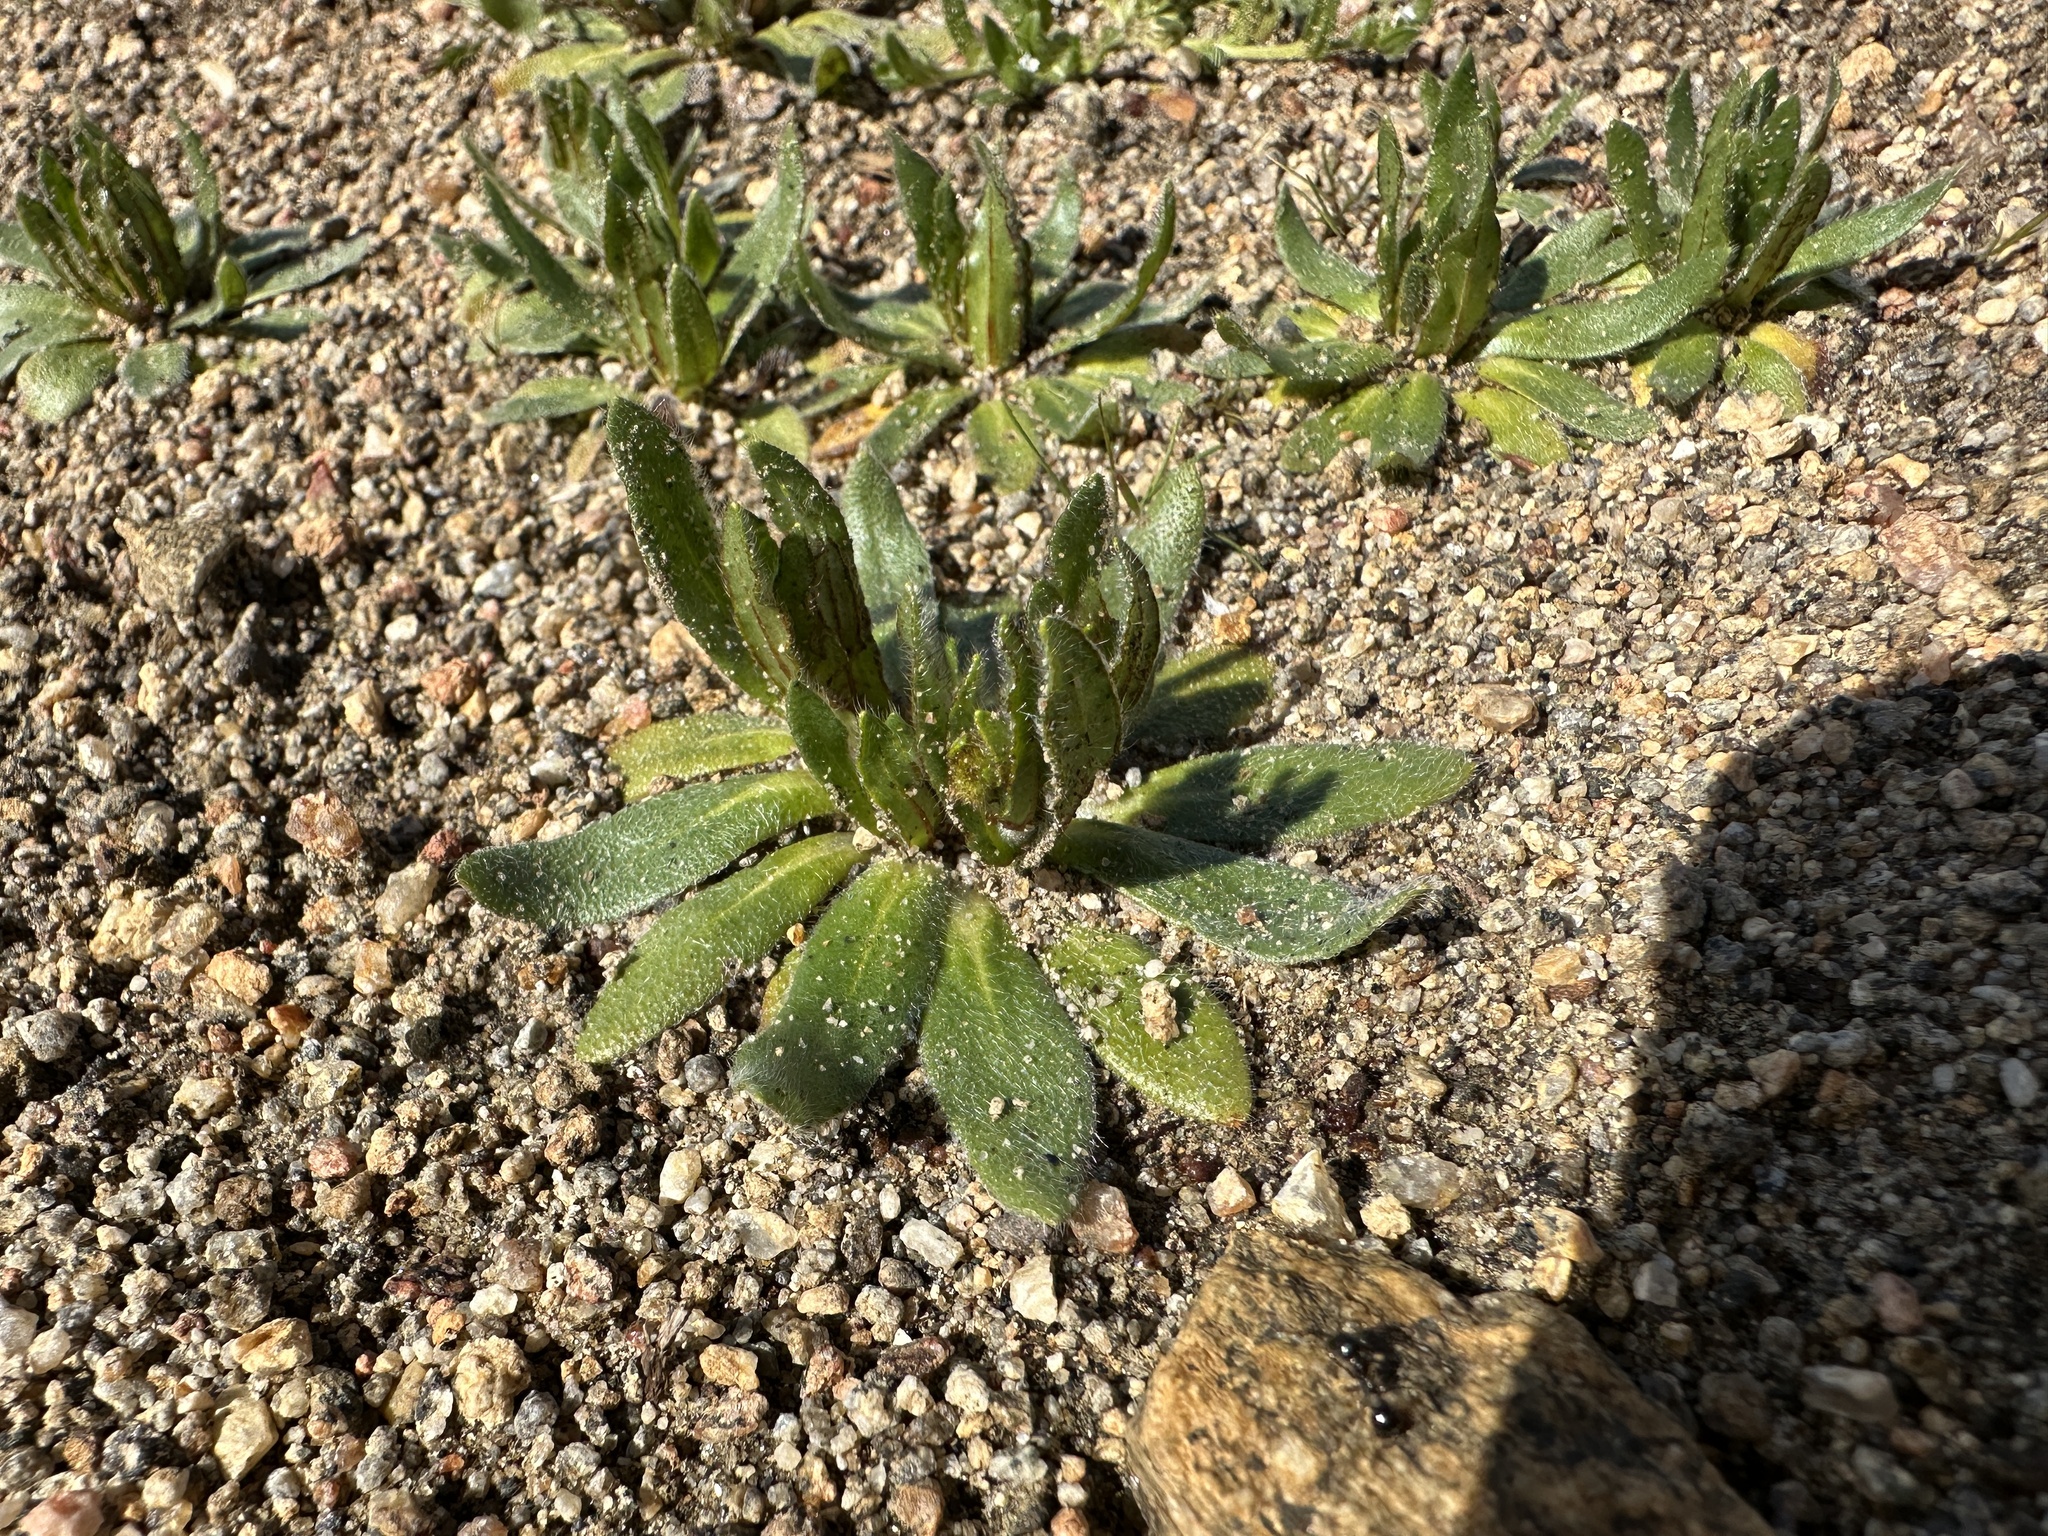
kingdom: Plantae
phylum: Tracheophyta
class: Magnoliopsida
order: Boraginales
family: Boraginaceae
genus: Plagiobothrys
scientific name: Plagiobothrys arizonicus
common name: Arizona popcorn-flower
